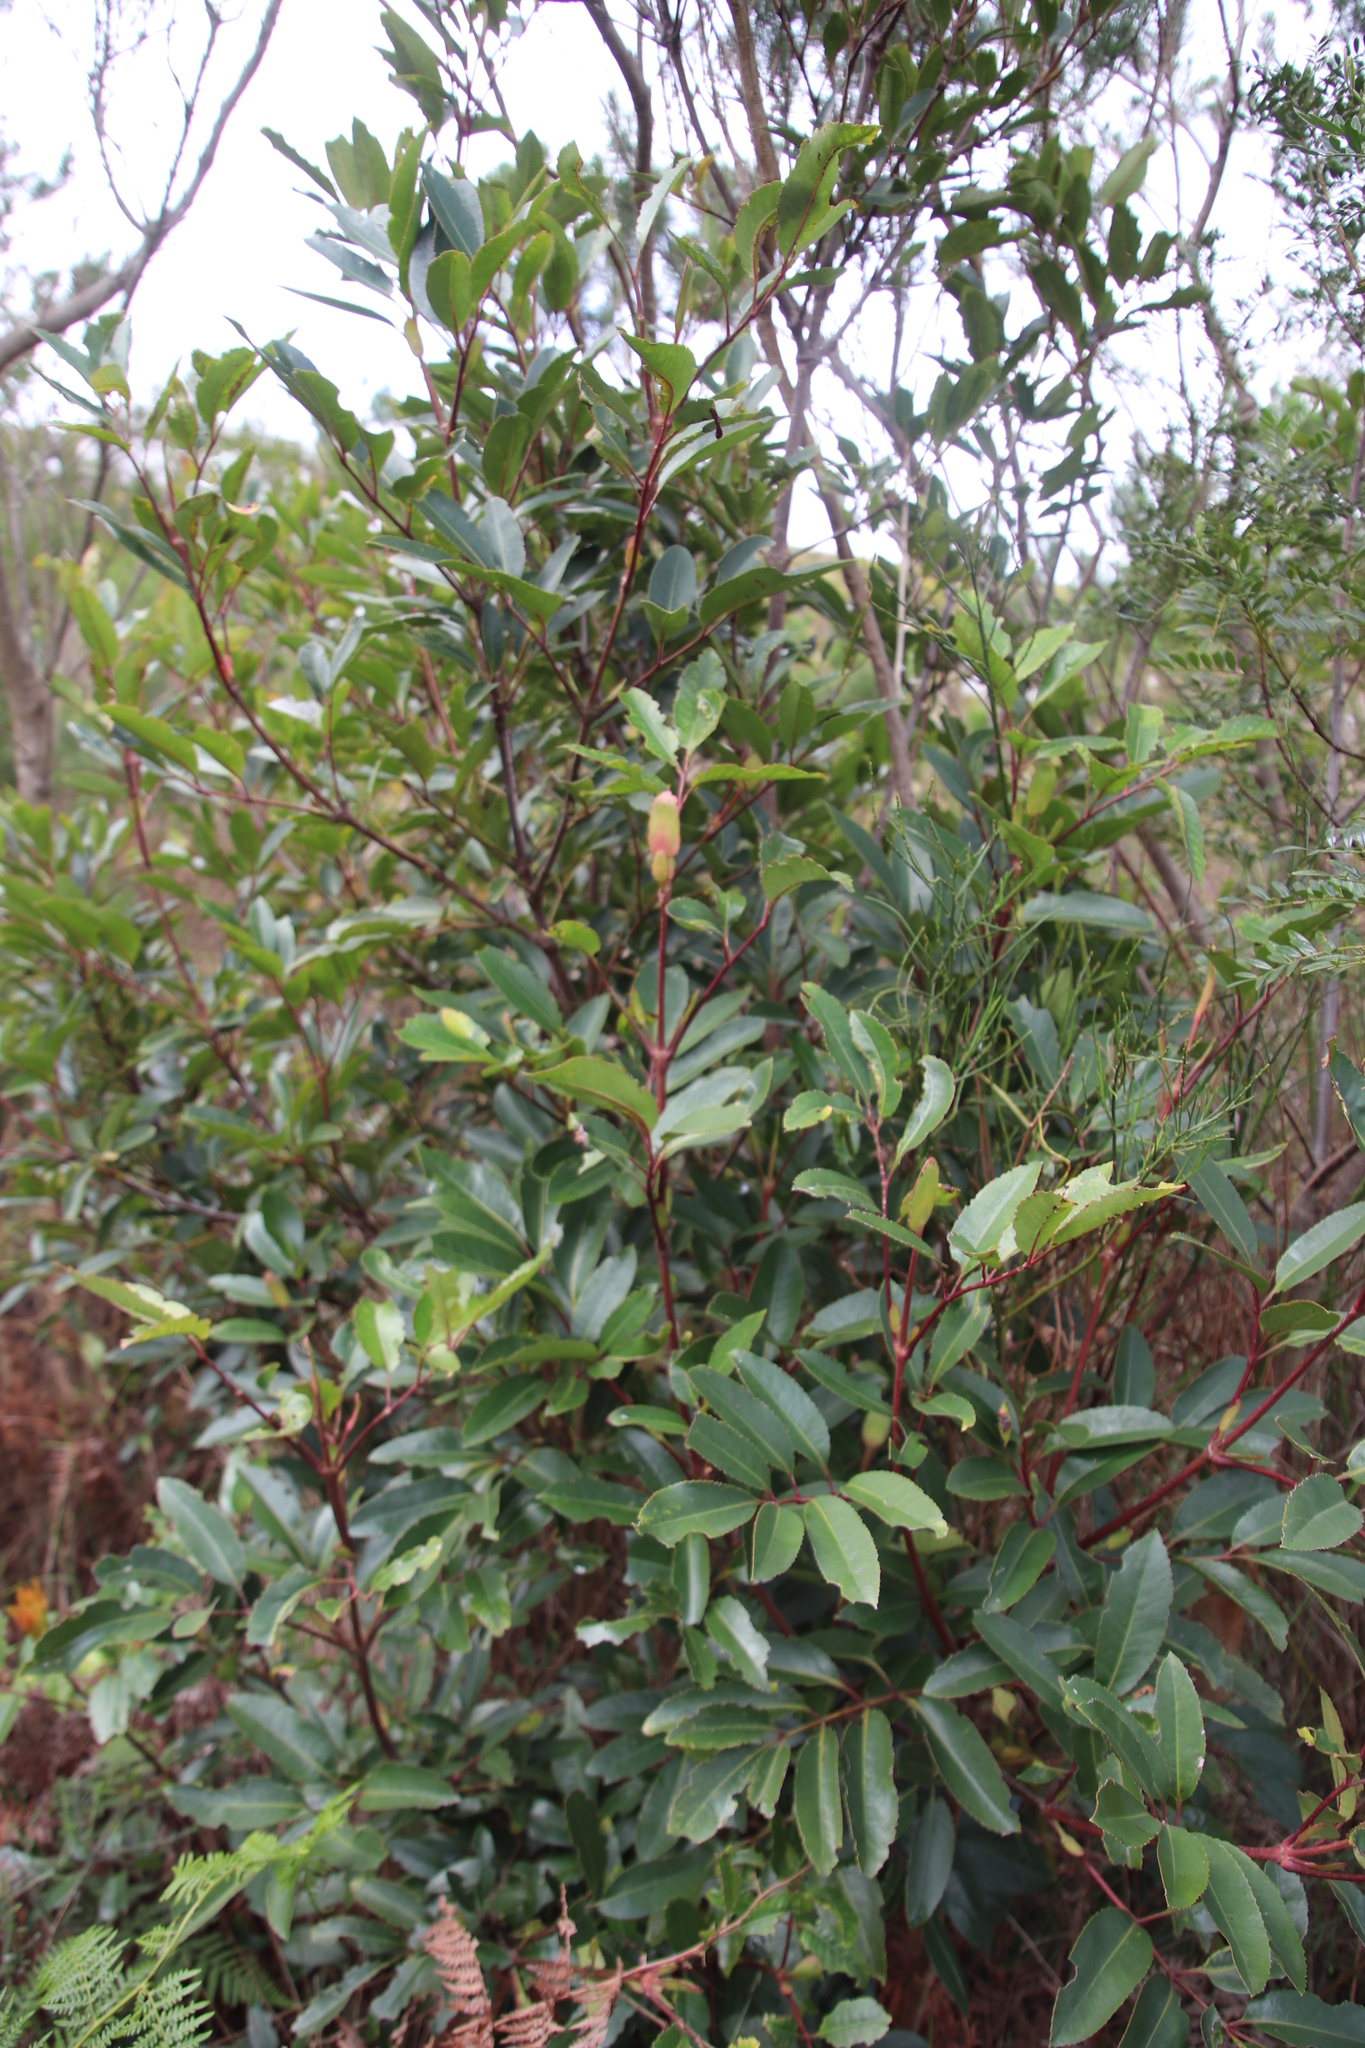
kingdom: Plantae
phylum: Tracheophyta
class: Magnoliopsida
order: Oxalidales
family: Cunoniaceae
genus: Cunonia
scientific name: Cunonia capensis
